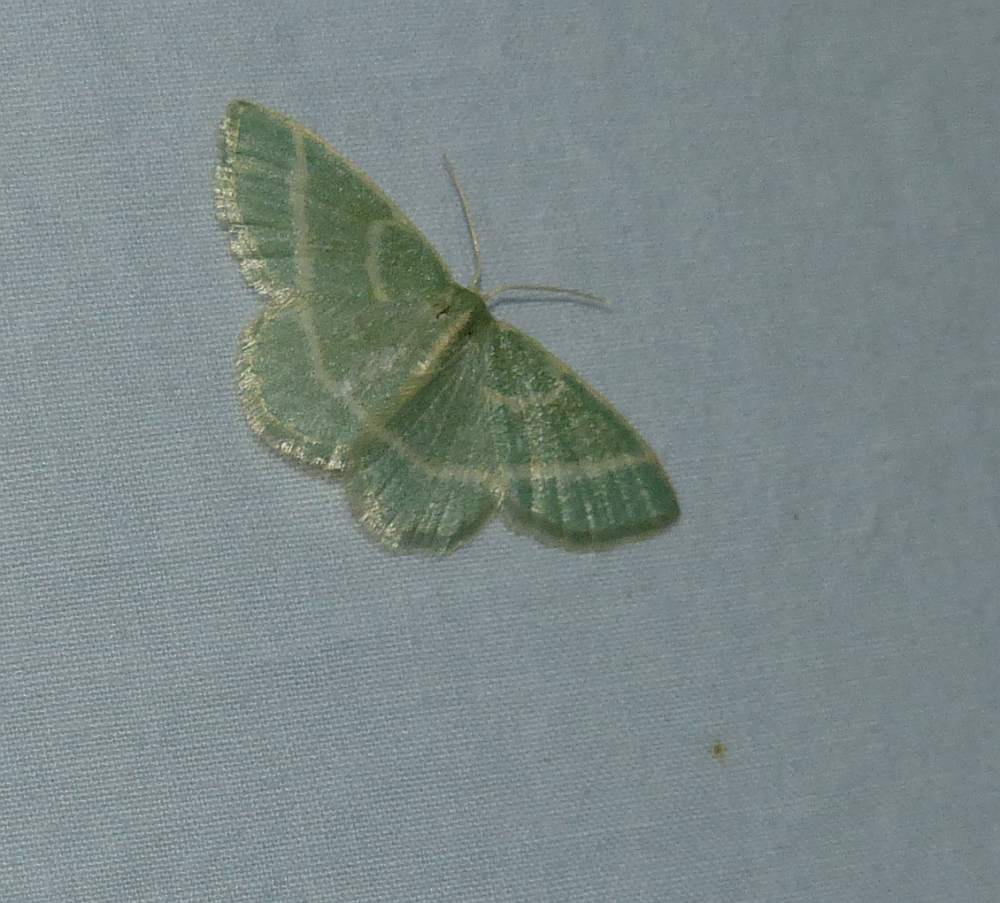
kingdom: Animalia
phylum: Arthropoda
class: Insecta
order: Lepidoptera
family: Geometridae
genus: Chlorochlamys
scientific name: Chlorochlamys chloroleucaria
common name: Blackberry looper
